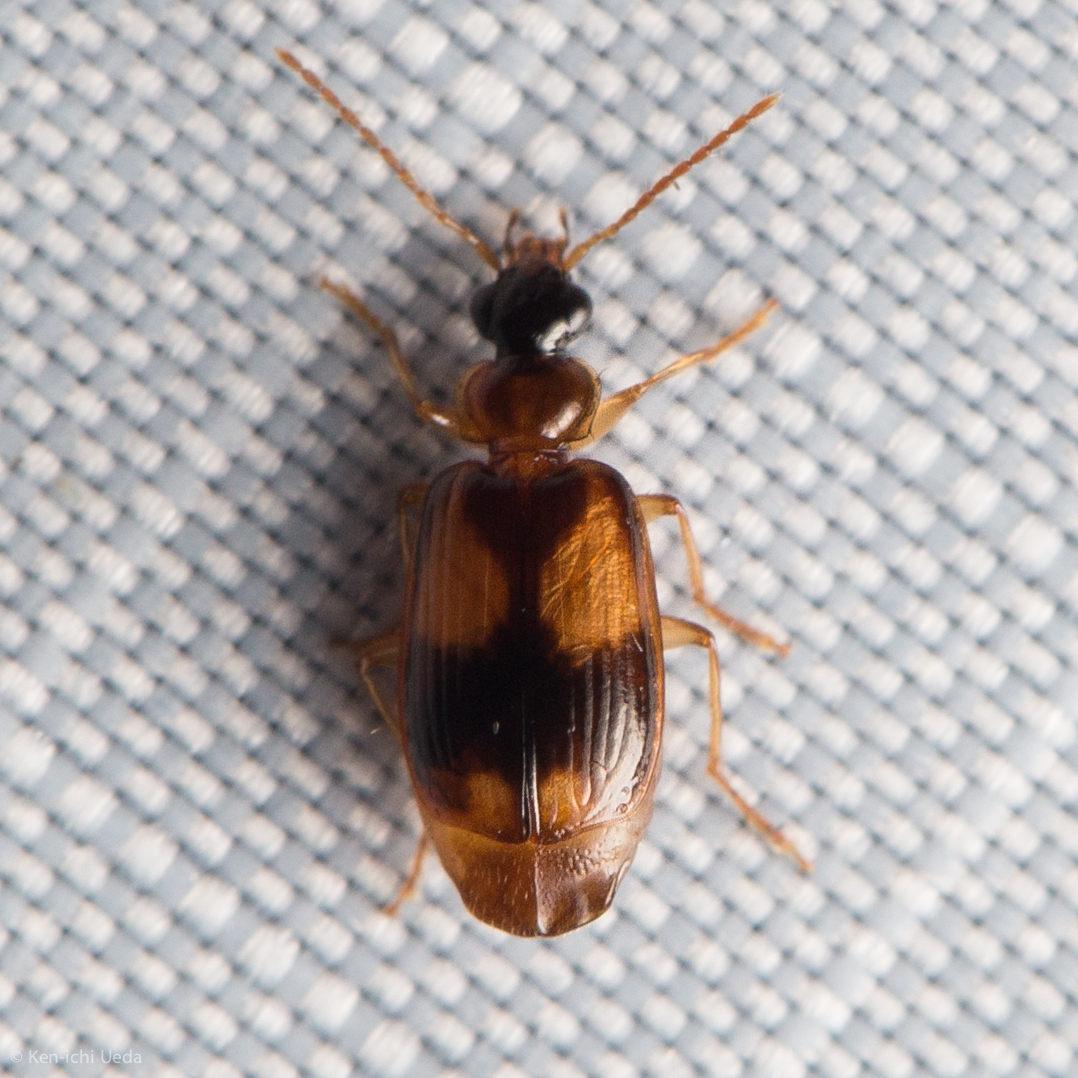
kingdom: Animalia
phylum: Arthropoda
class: Insecta
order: Coleoptera
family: Carabidae
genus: Lebia
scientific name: Lebia ornata
